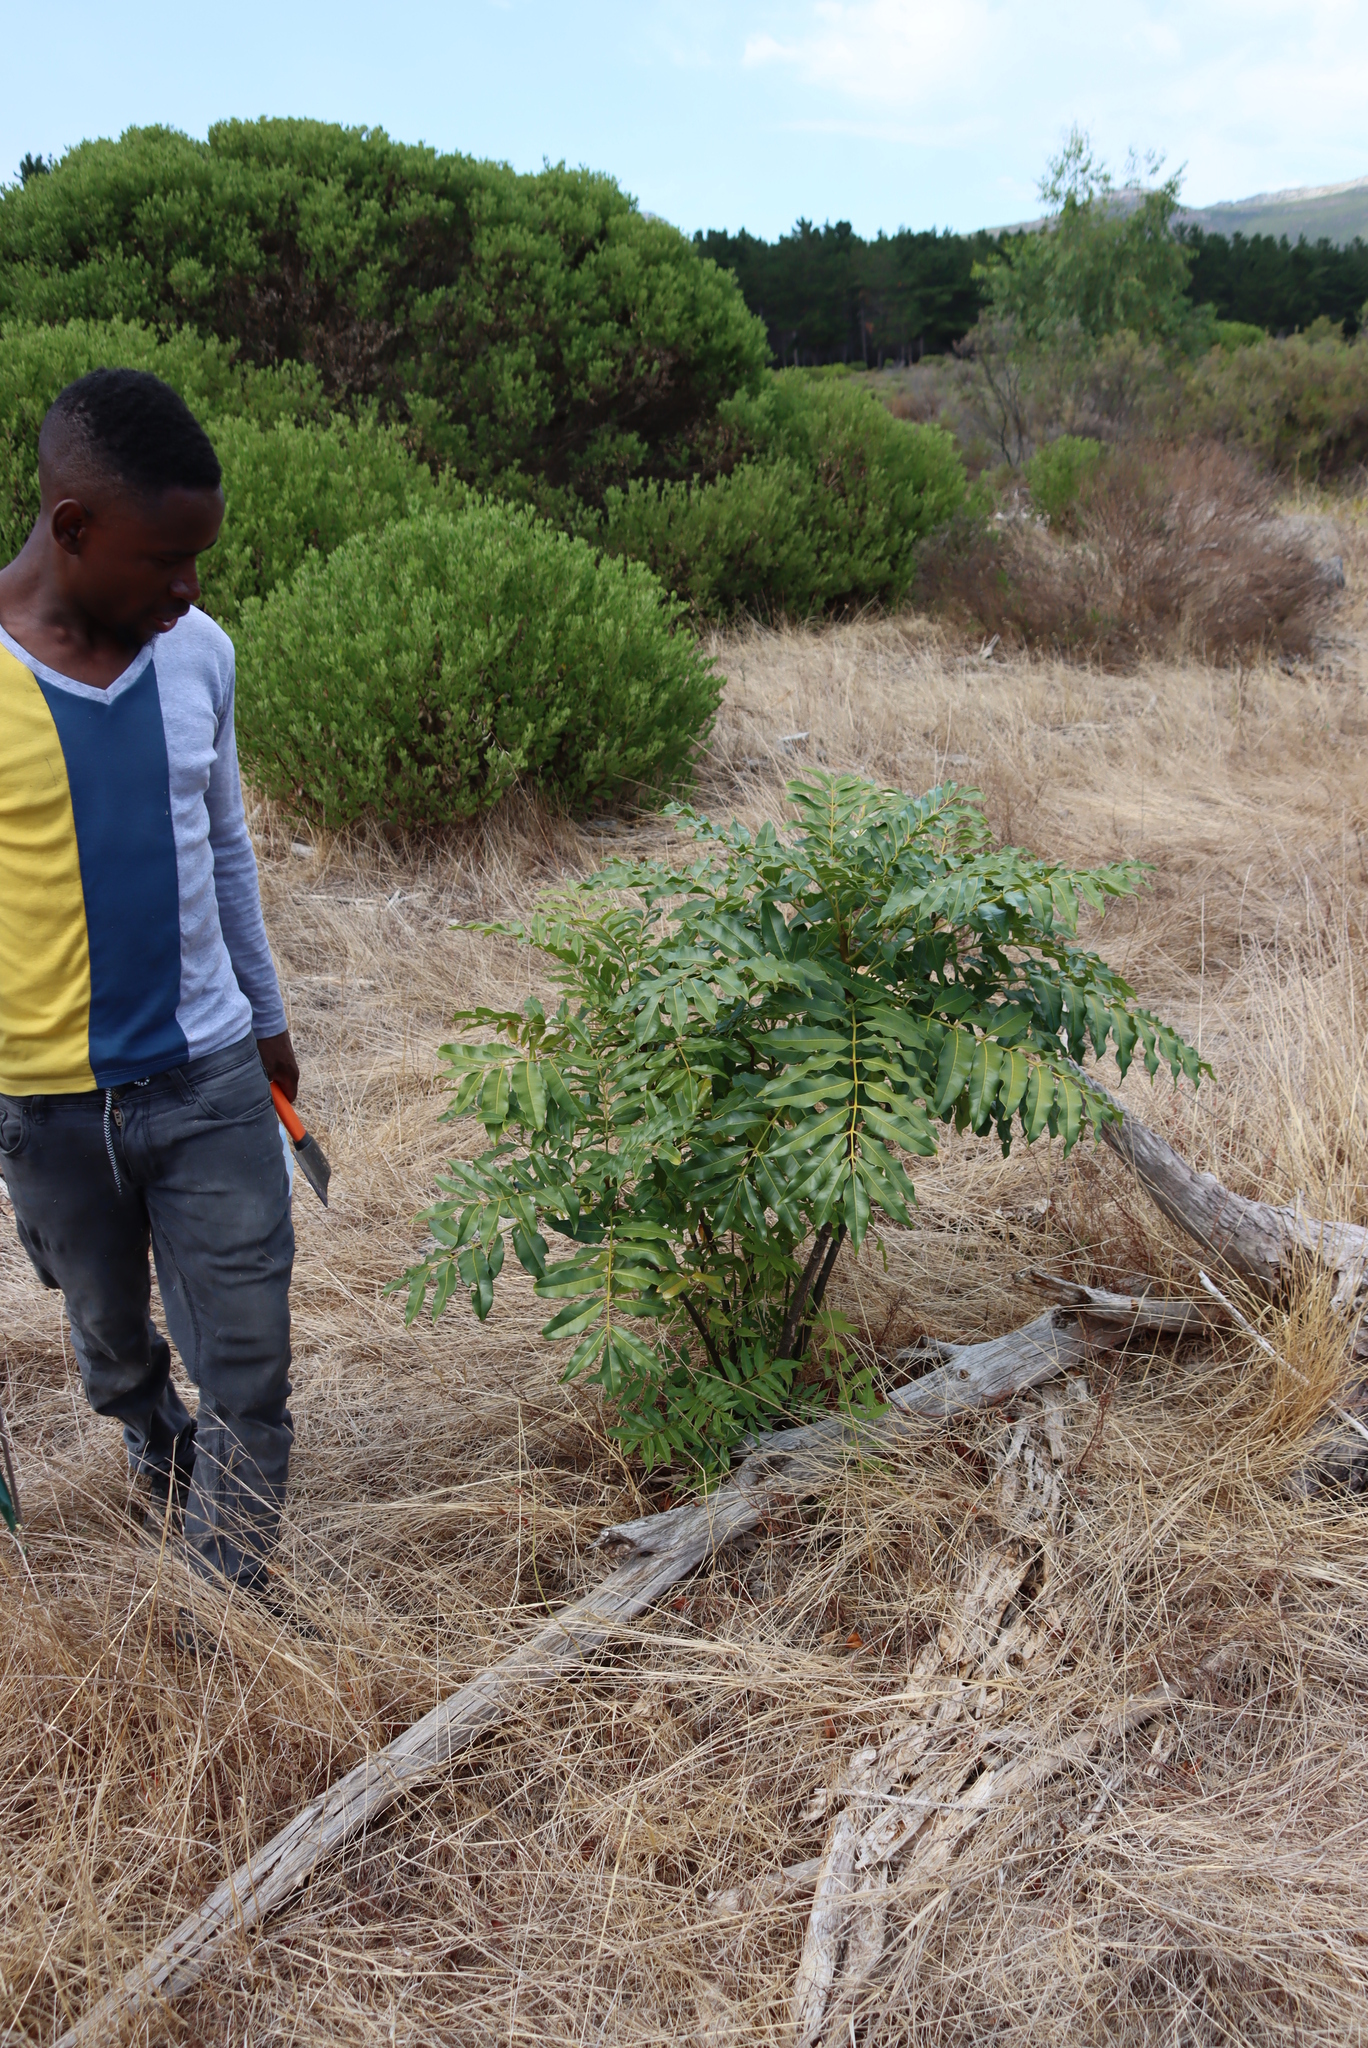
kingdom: Plantae
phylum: Tracheophyta
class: Magnoliopsida
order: Sapindales
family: Meliaceae
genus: Ekebergia
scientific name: Ekebergia capensis
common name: Cape-ash
